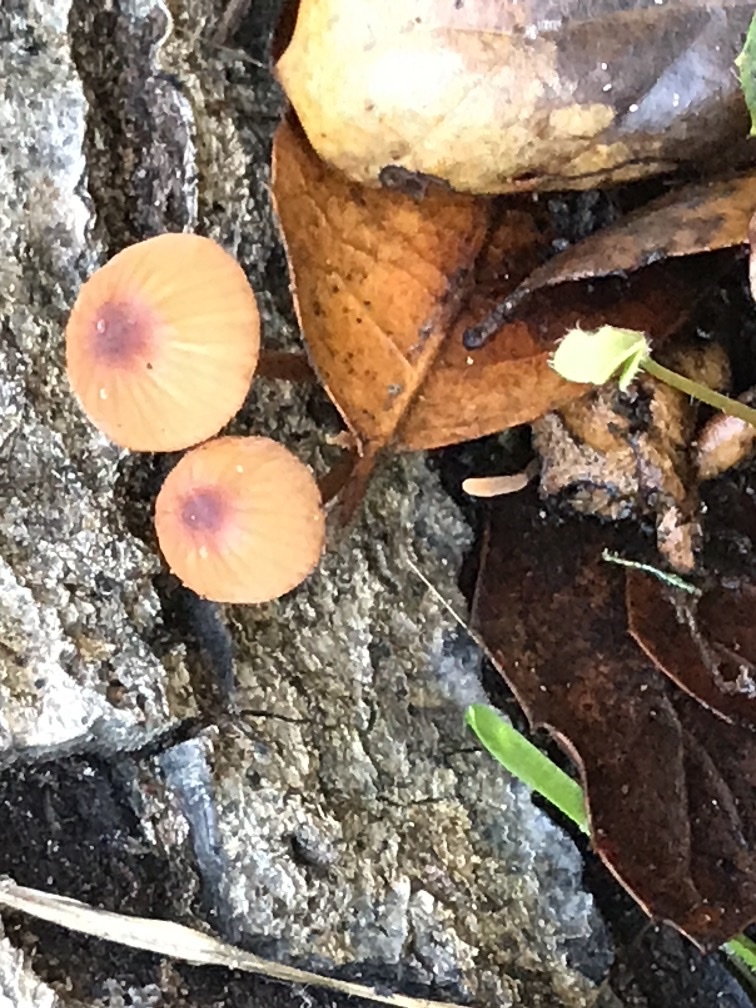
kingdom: Fungi
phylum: Basidiomycota
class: Agaricomycetes
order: Agaricales
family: Mycenaceae
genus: Mycena
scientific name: Mycena
